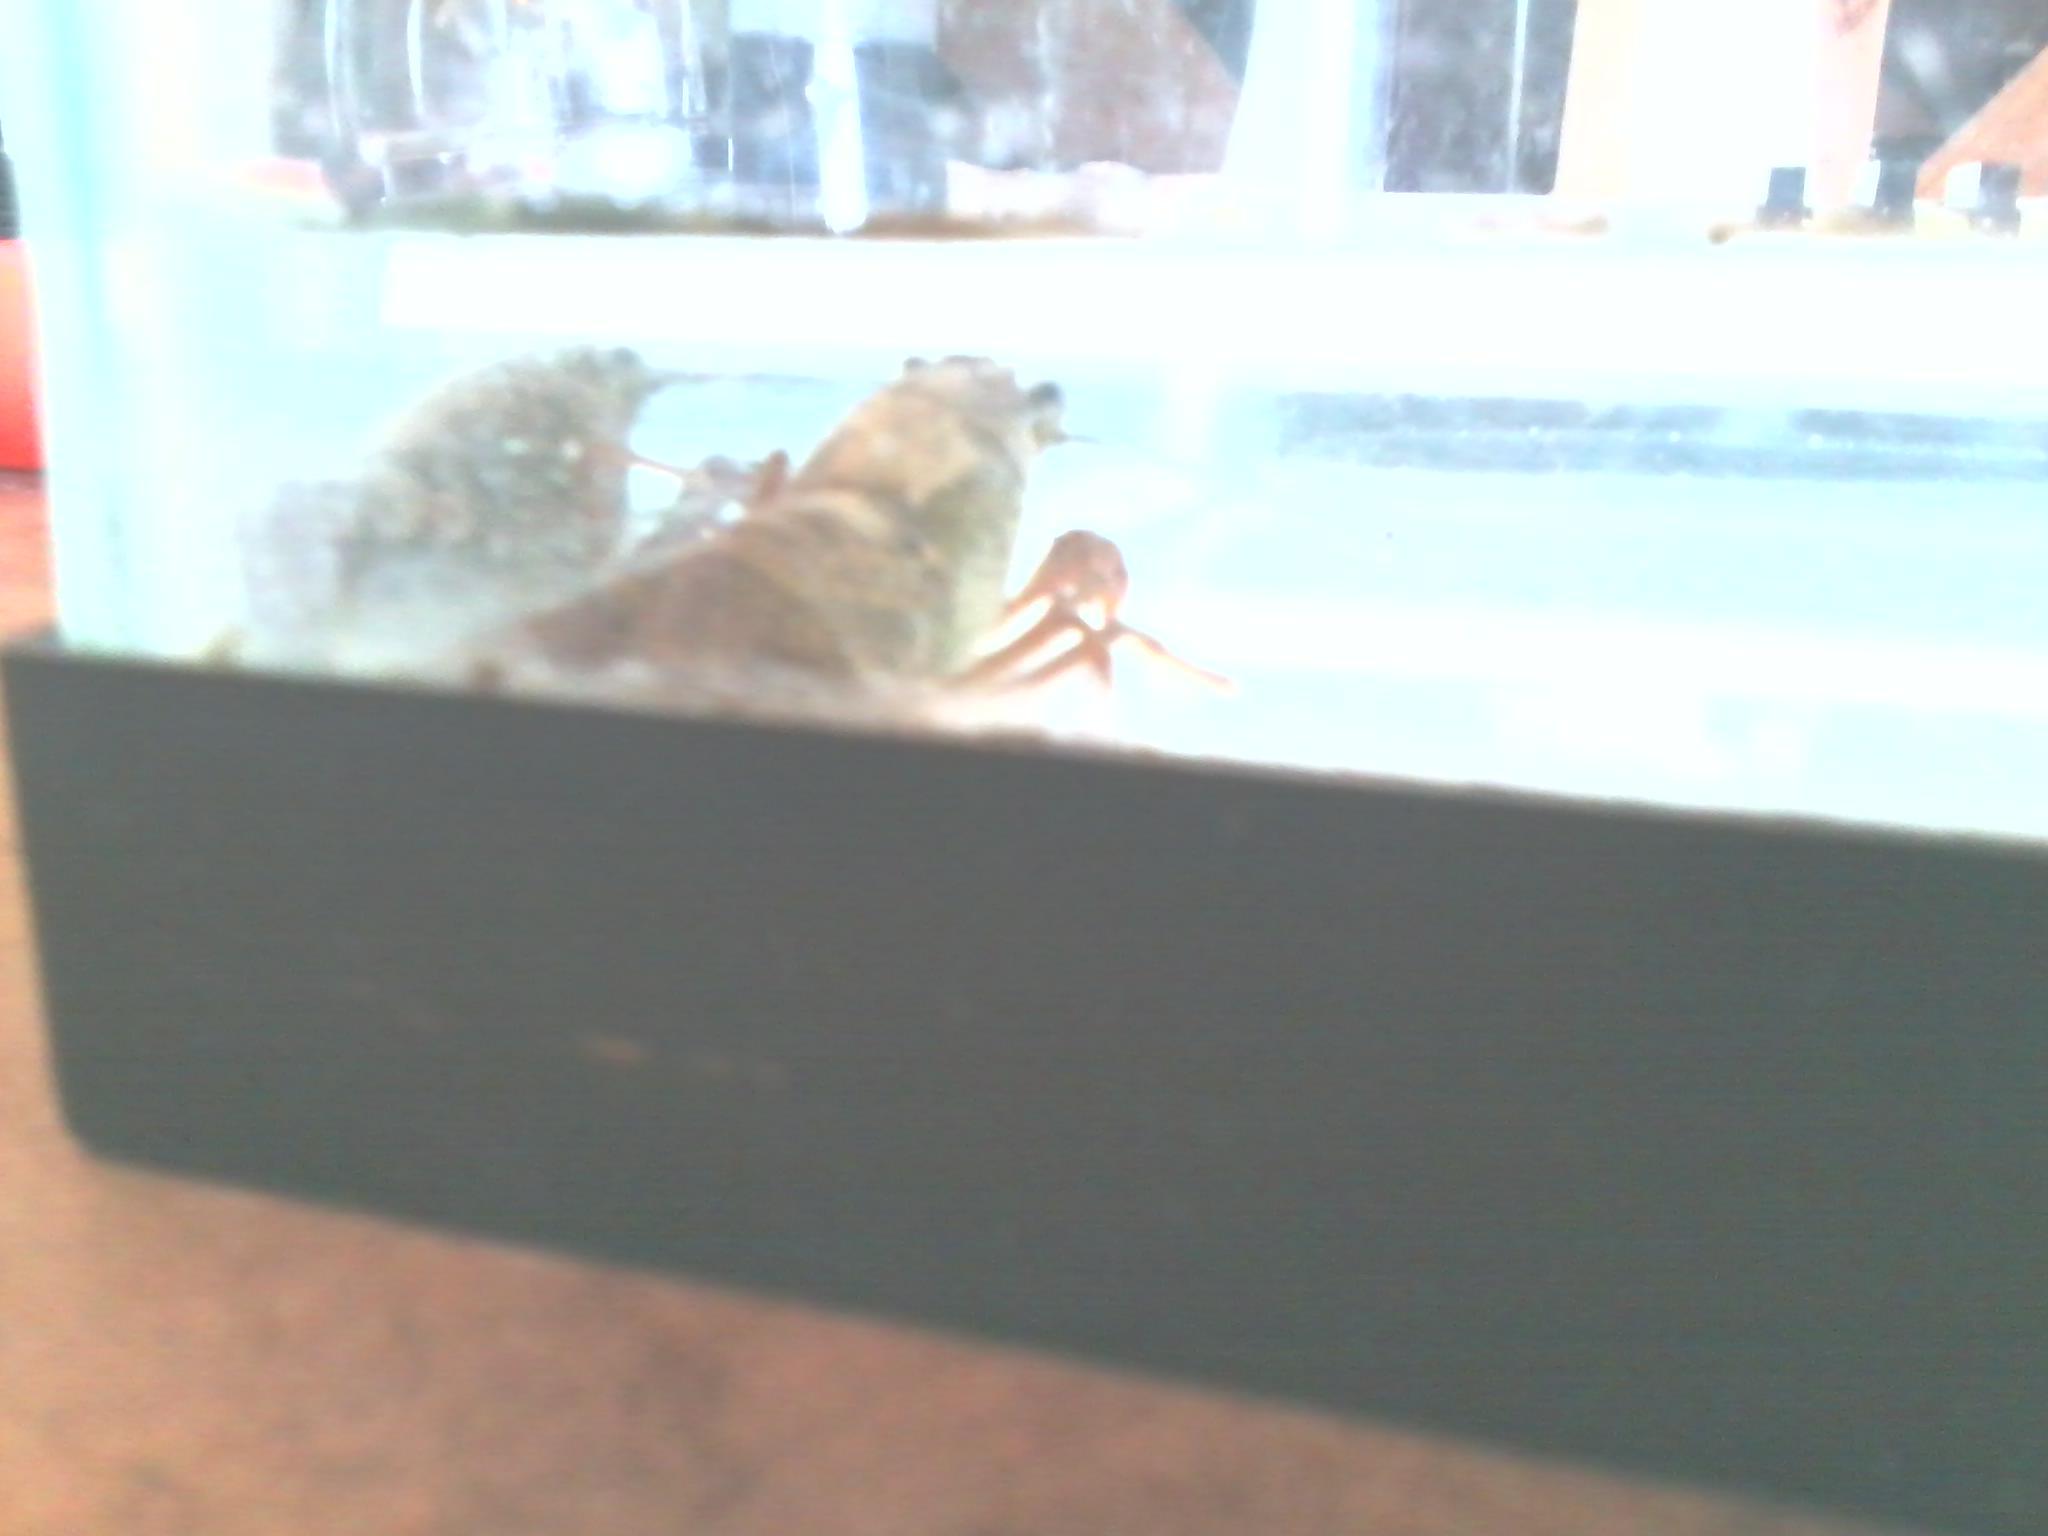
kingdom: Animalia
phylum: Arthropoda
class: Malacostraca
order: Decapoda
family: Cambaridae
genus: Procambarus
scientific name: Procambarus clarkii
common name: Red swamp crayfish
